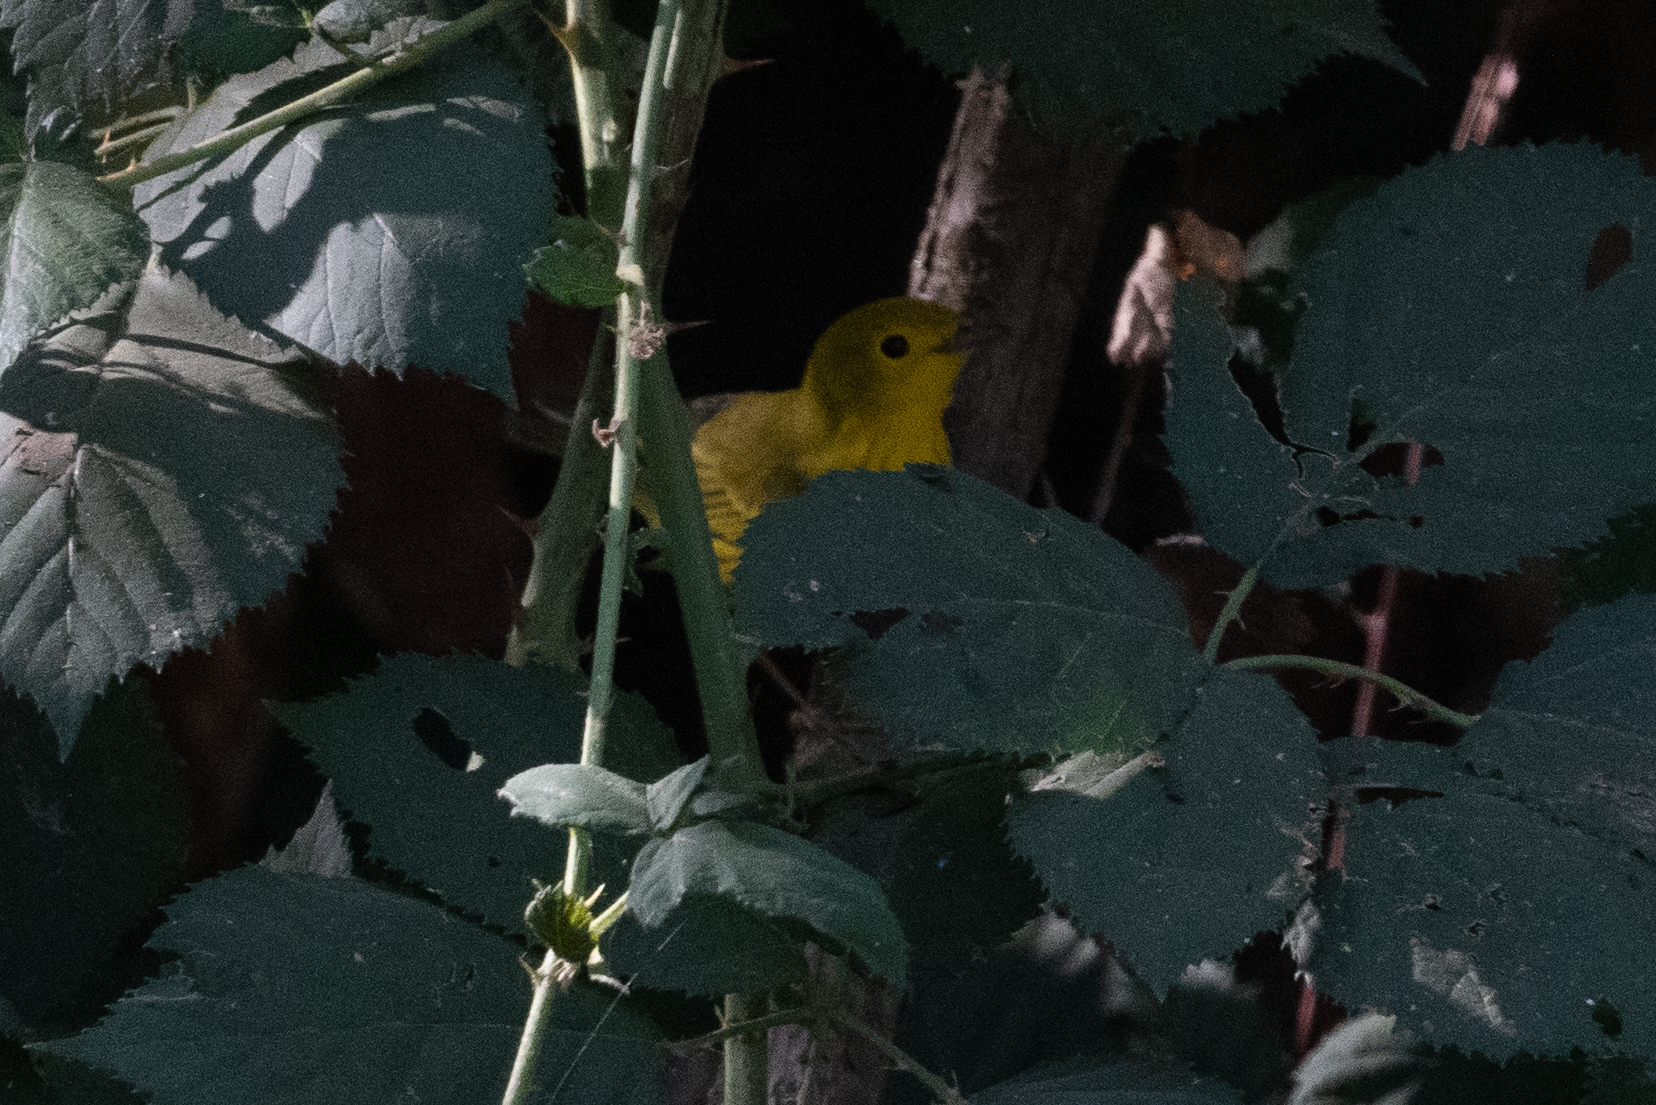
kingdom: Animalia
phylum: Chordata
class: Aves
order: Passeriformes
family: Parulidae
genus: Setophaga
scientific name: Setophaga petechia
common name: Yellow warbler
